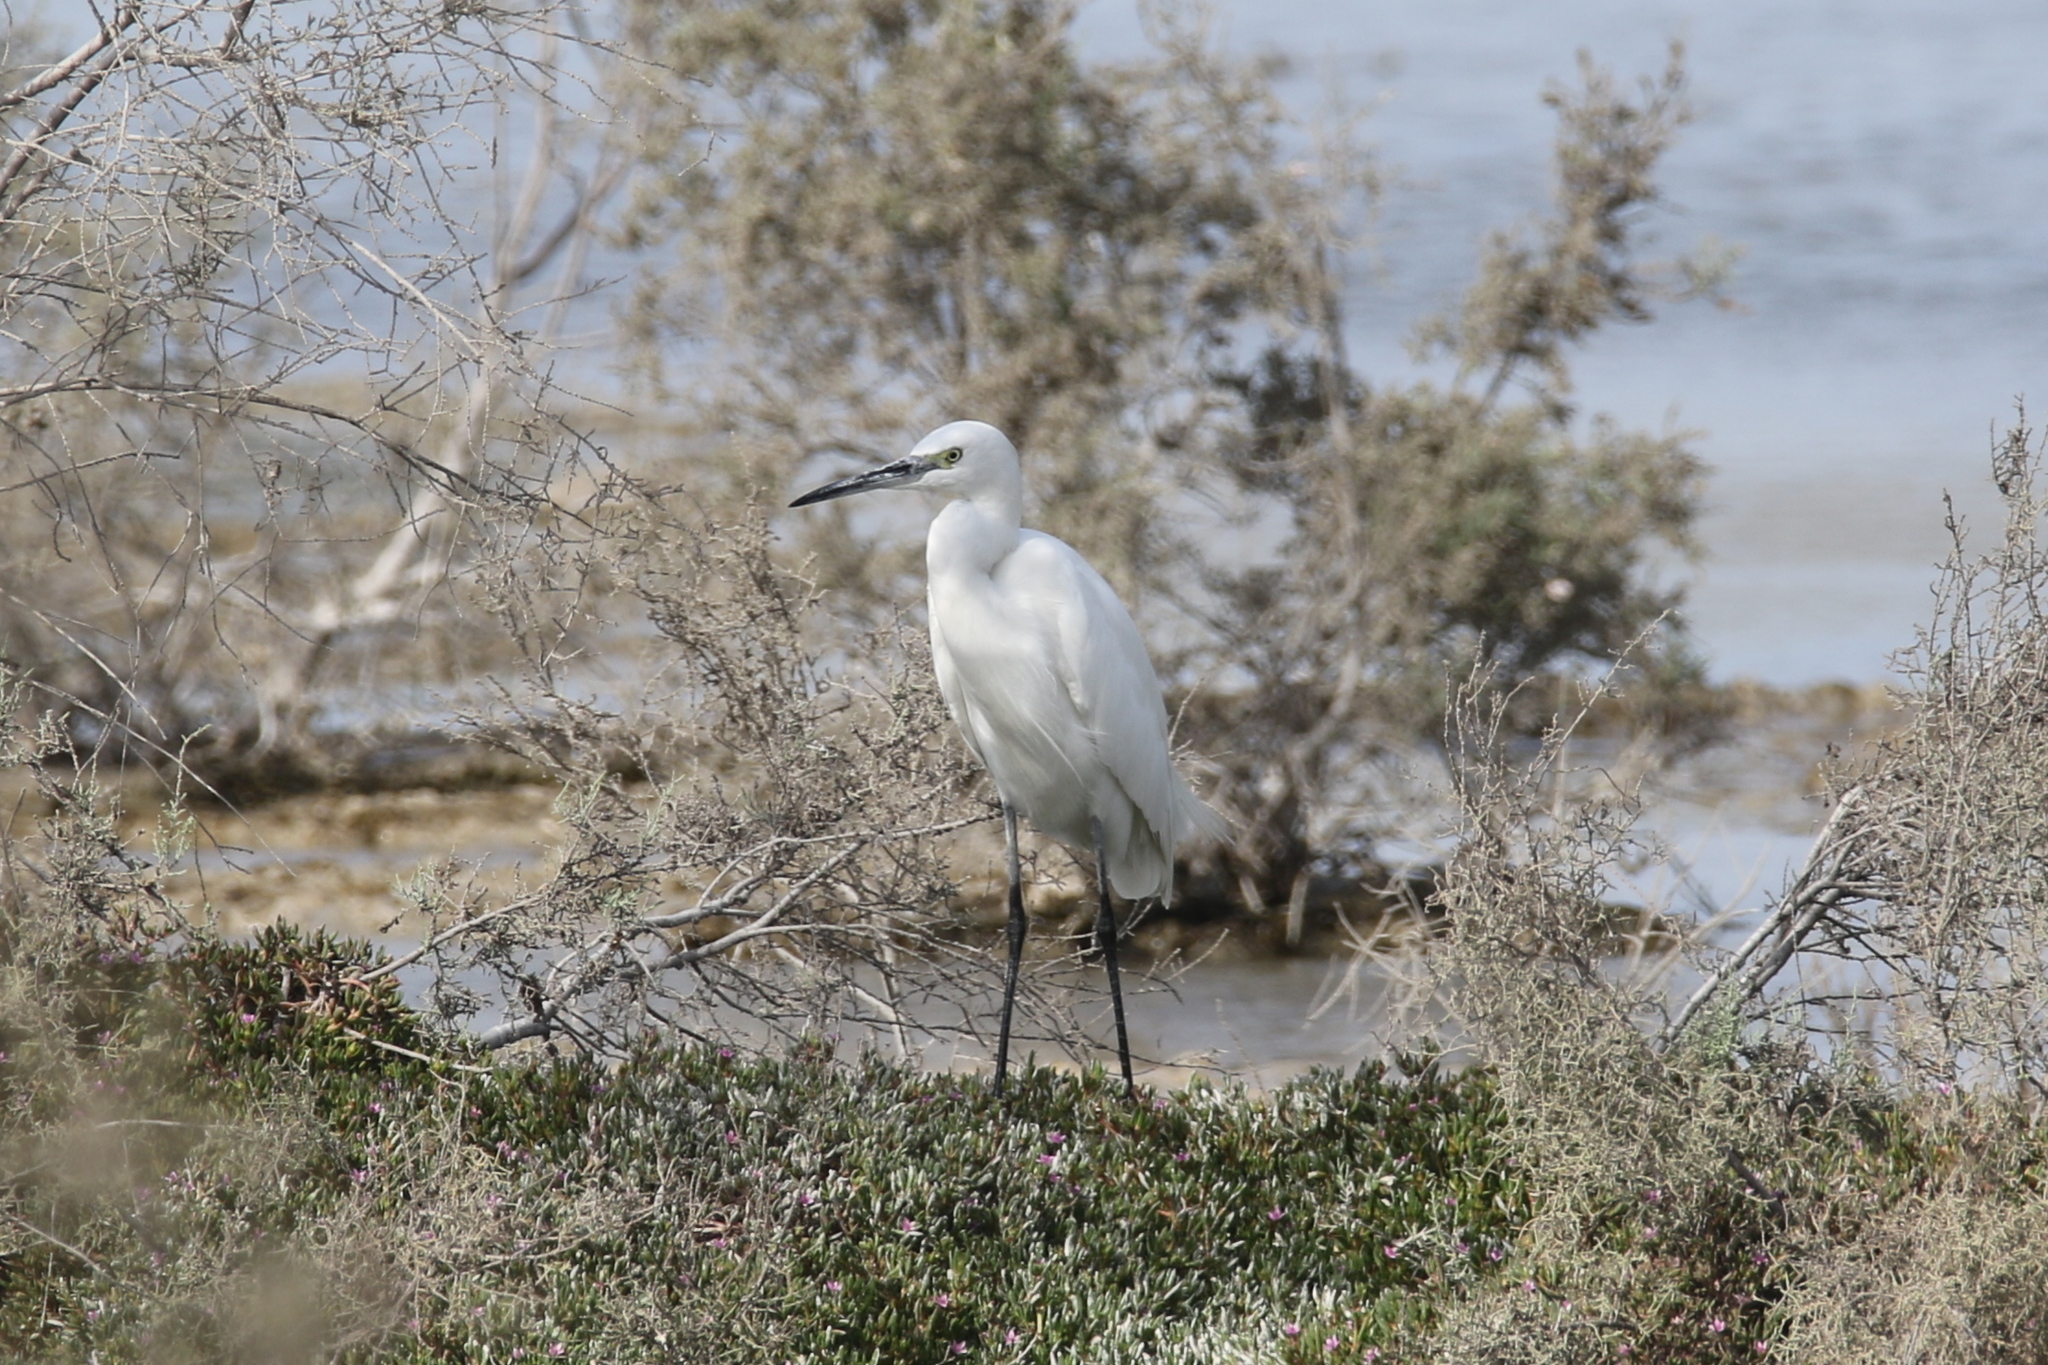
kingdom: Animalia
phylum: Chordata
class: Aves
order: Pelecaniformes
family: Ardeidae
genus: Egretta
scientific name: Egretta garzetta
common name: Little egret
